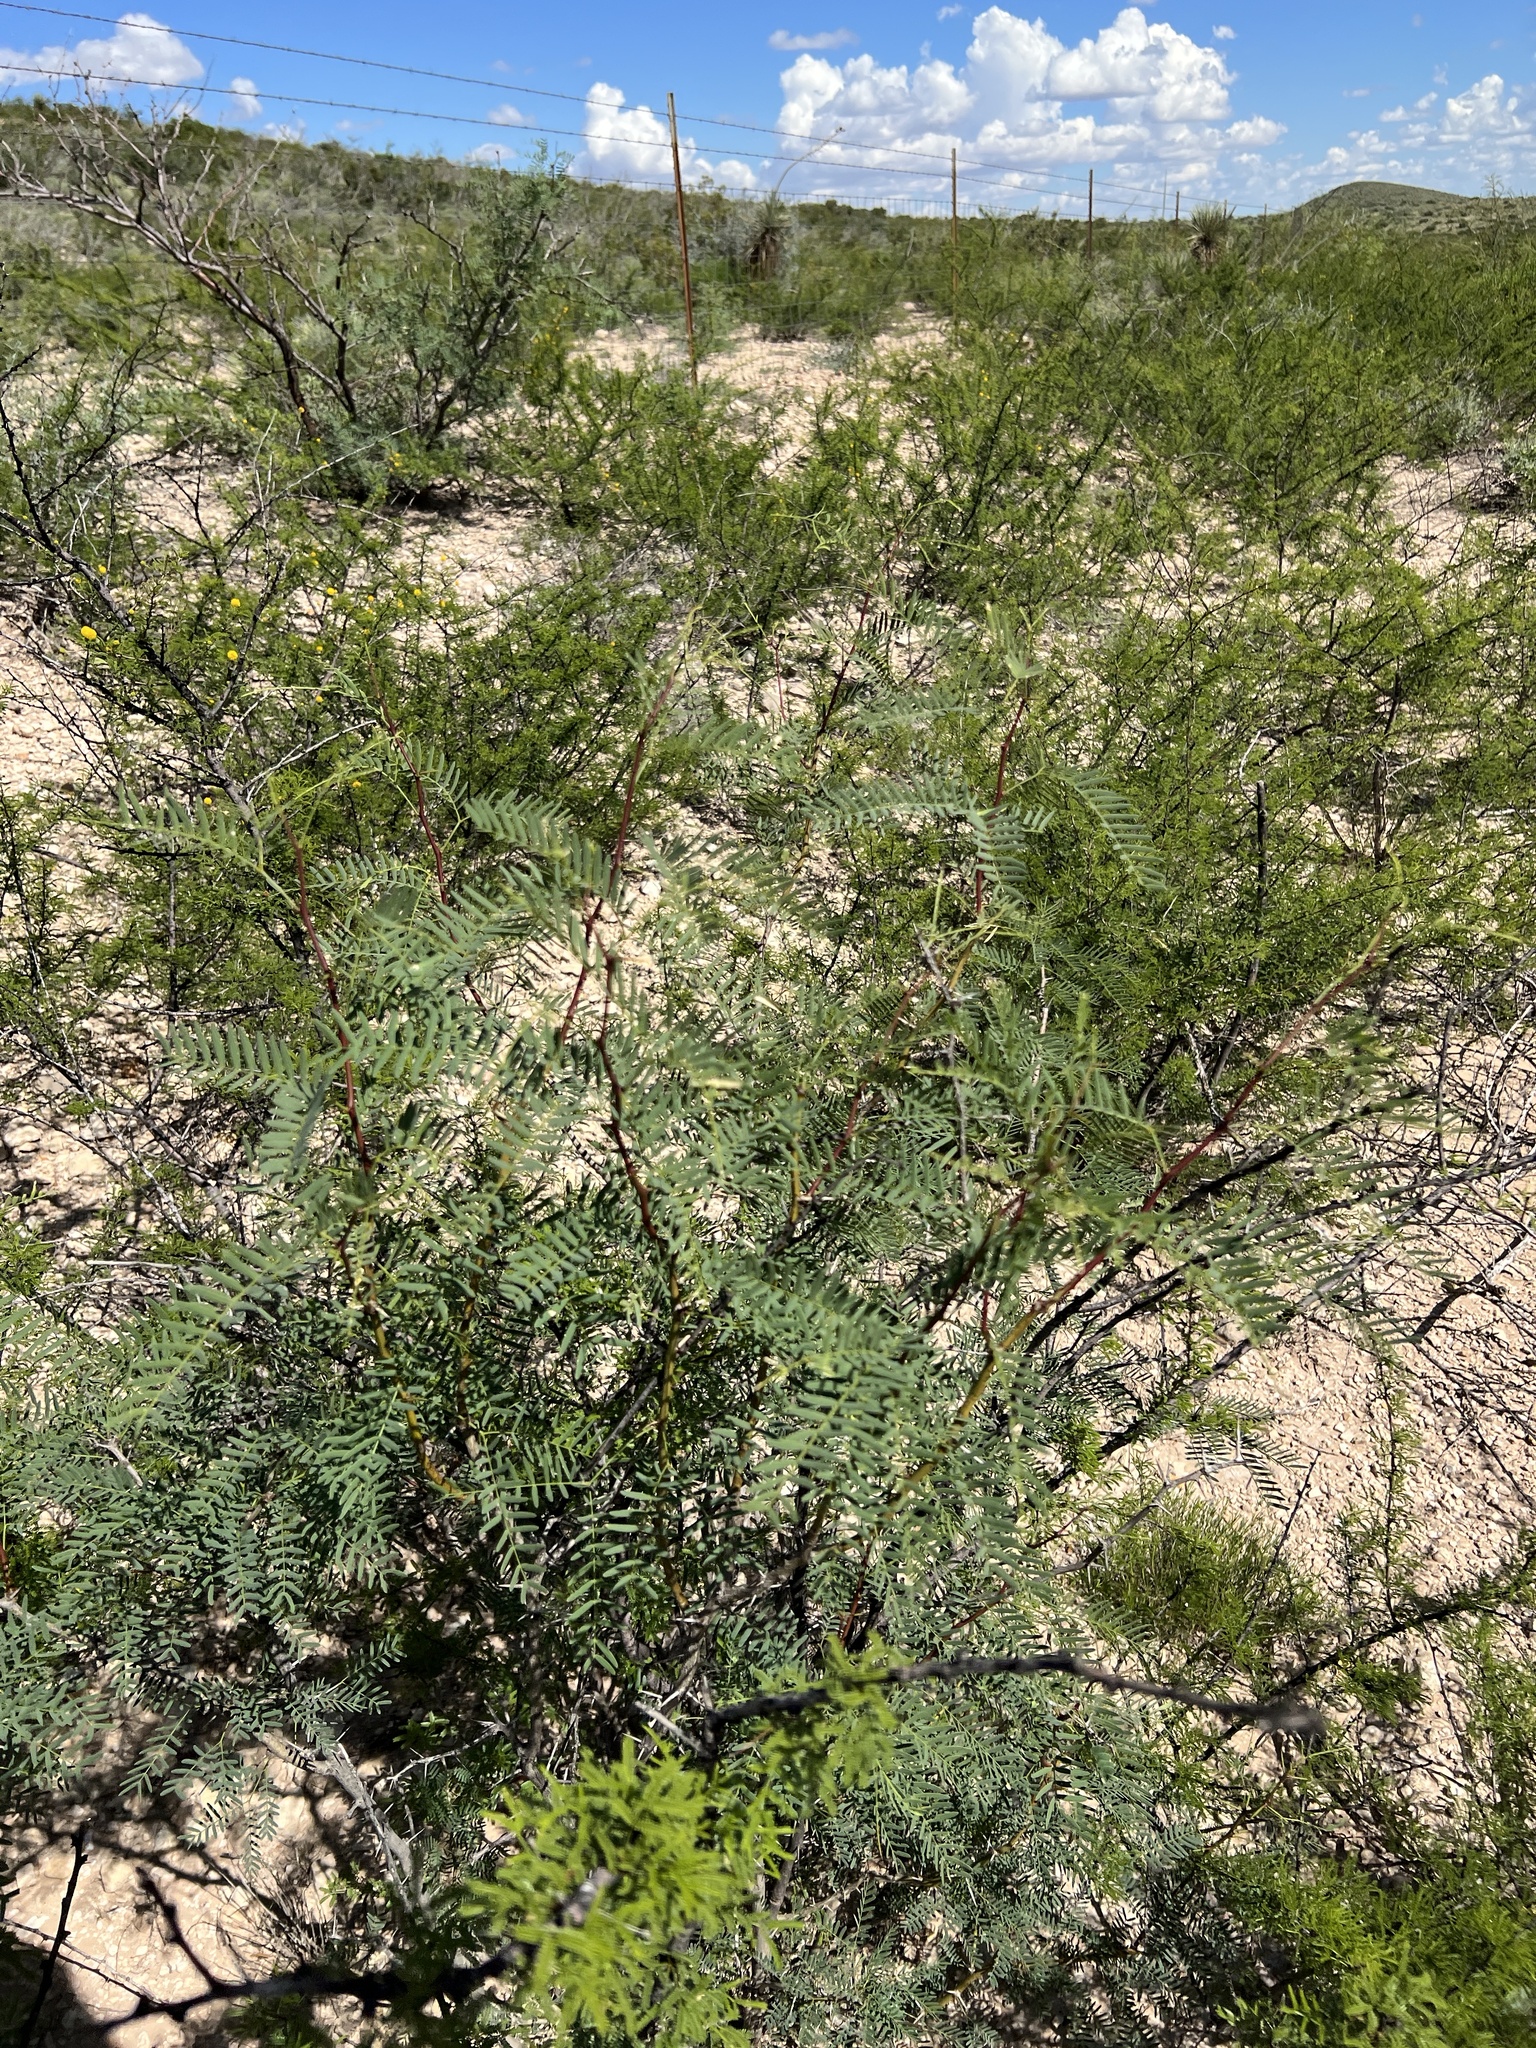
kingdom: Plantae
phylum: Tracheophyta
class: Magnoliopsida
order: Fabales
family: Fabaceae
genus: Vachellia
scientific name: Vachellia vernicosa
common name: Viscid acacia
